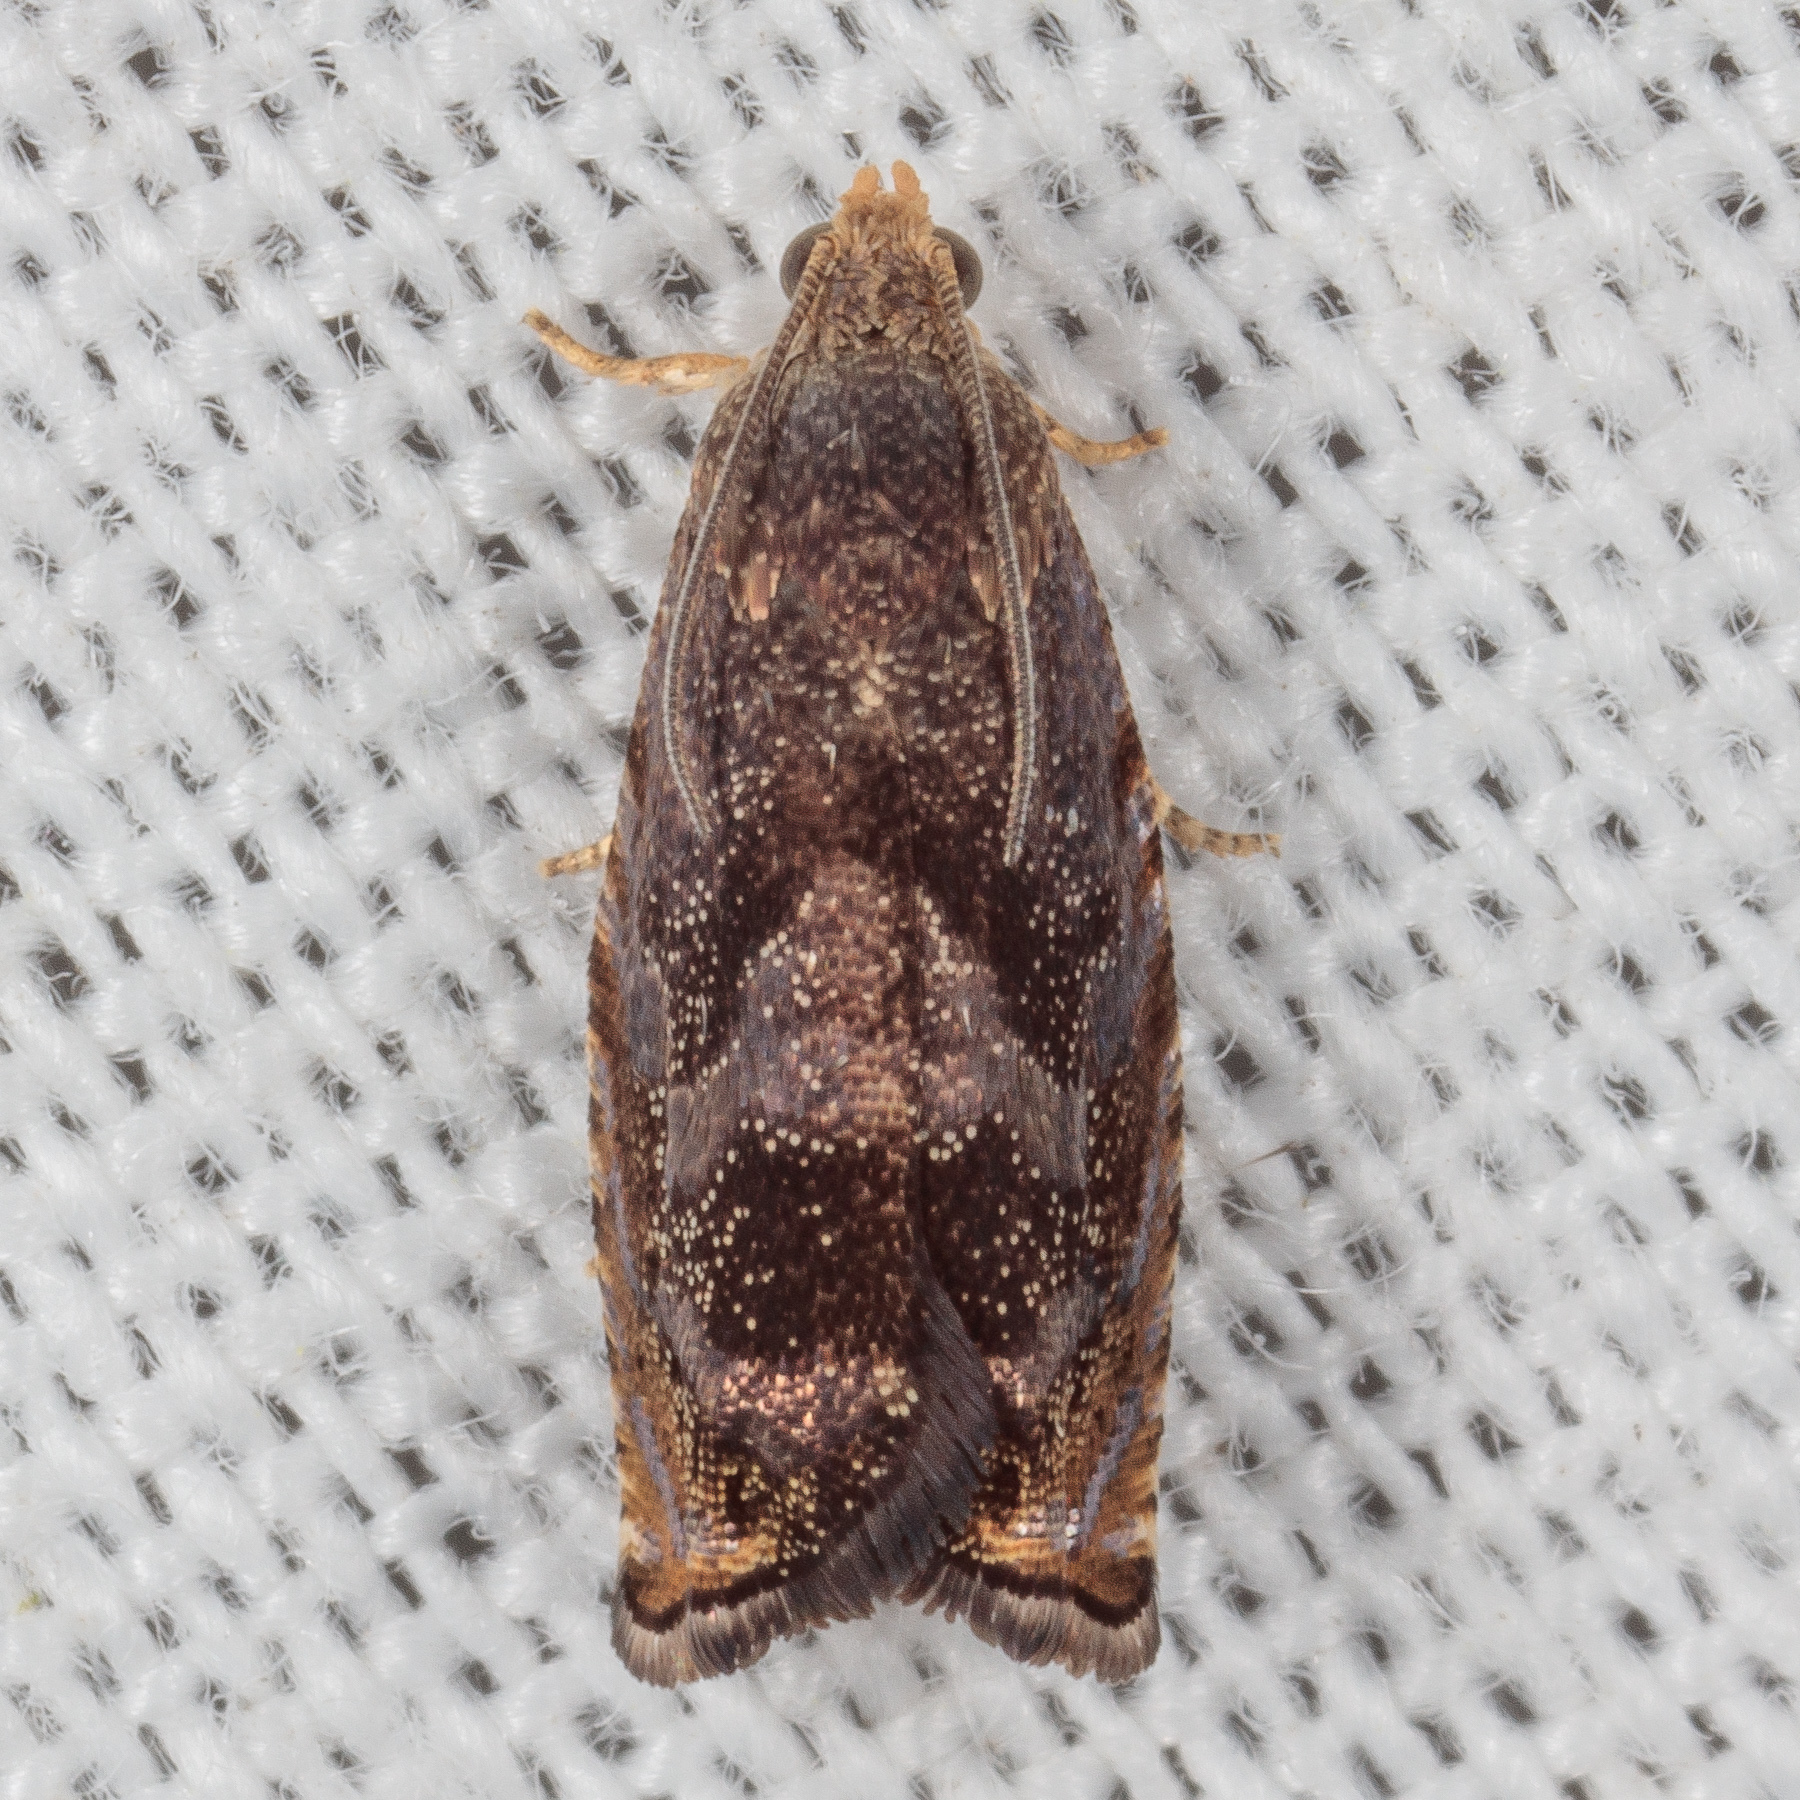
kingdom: Animalia
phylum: Arthropoda
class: Insecta
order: Lepidoptera
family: Tortricidae
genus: Cydia
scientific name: Cydia caryana
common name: Hickory shuckworm moth
